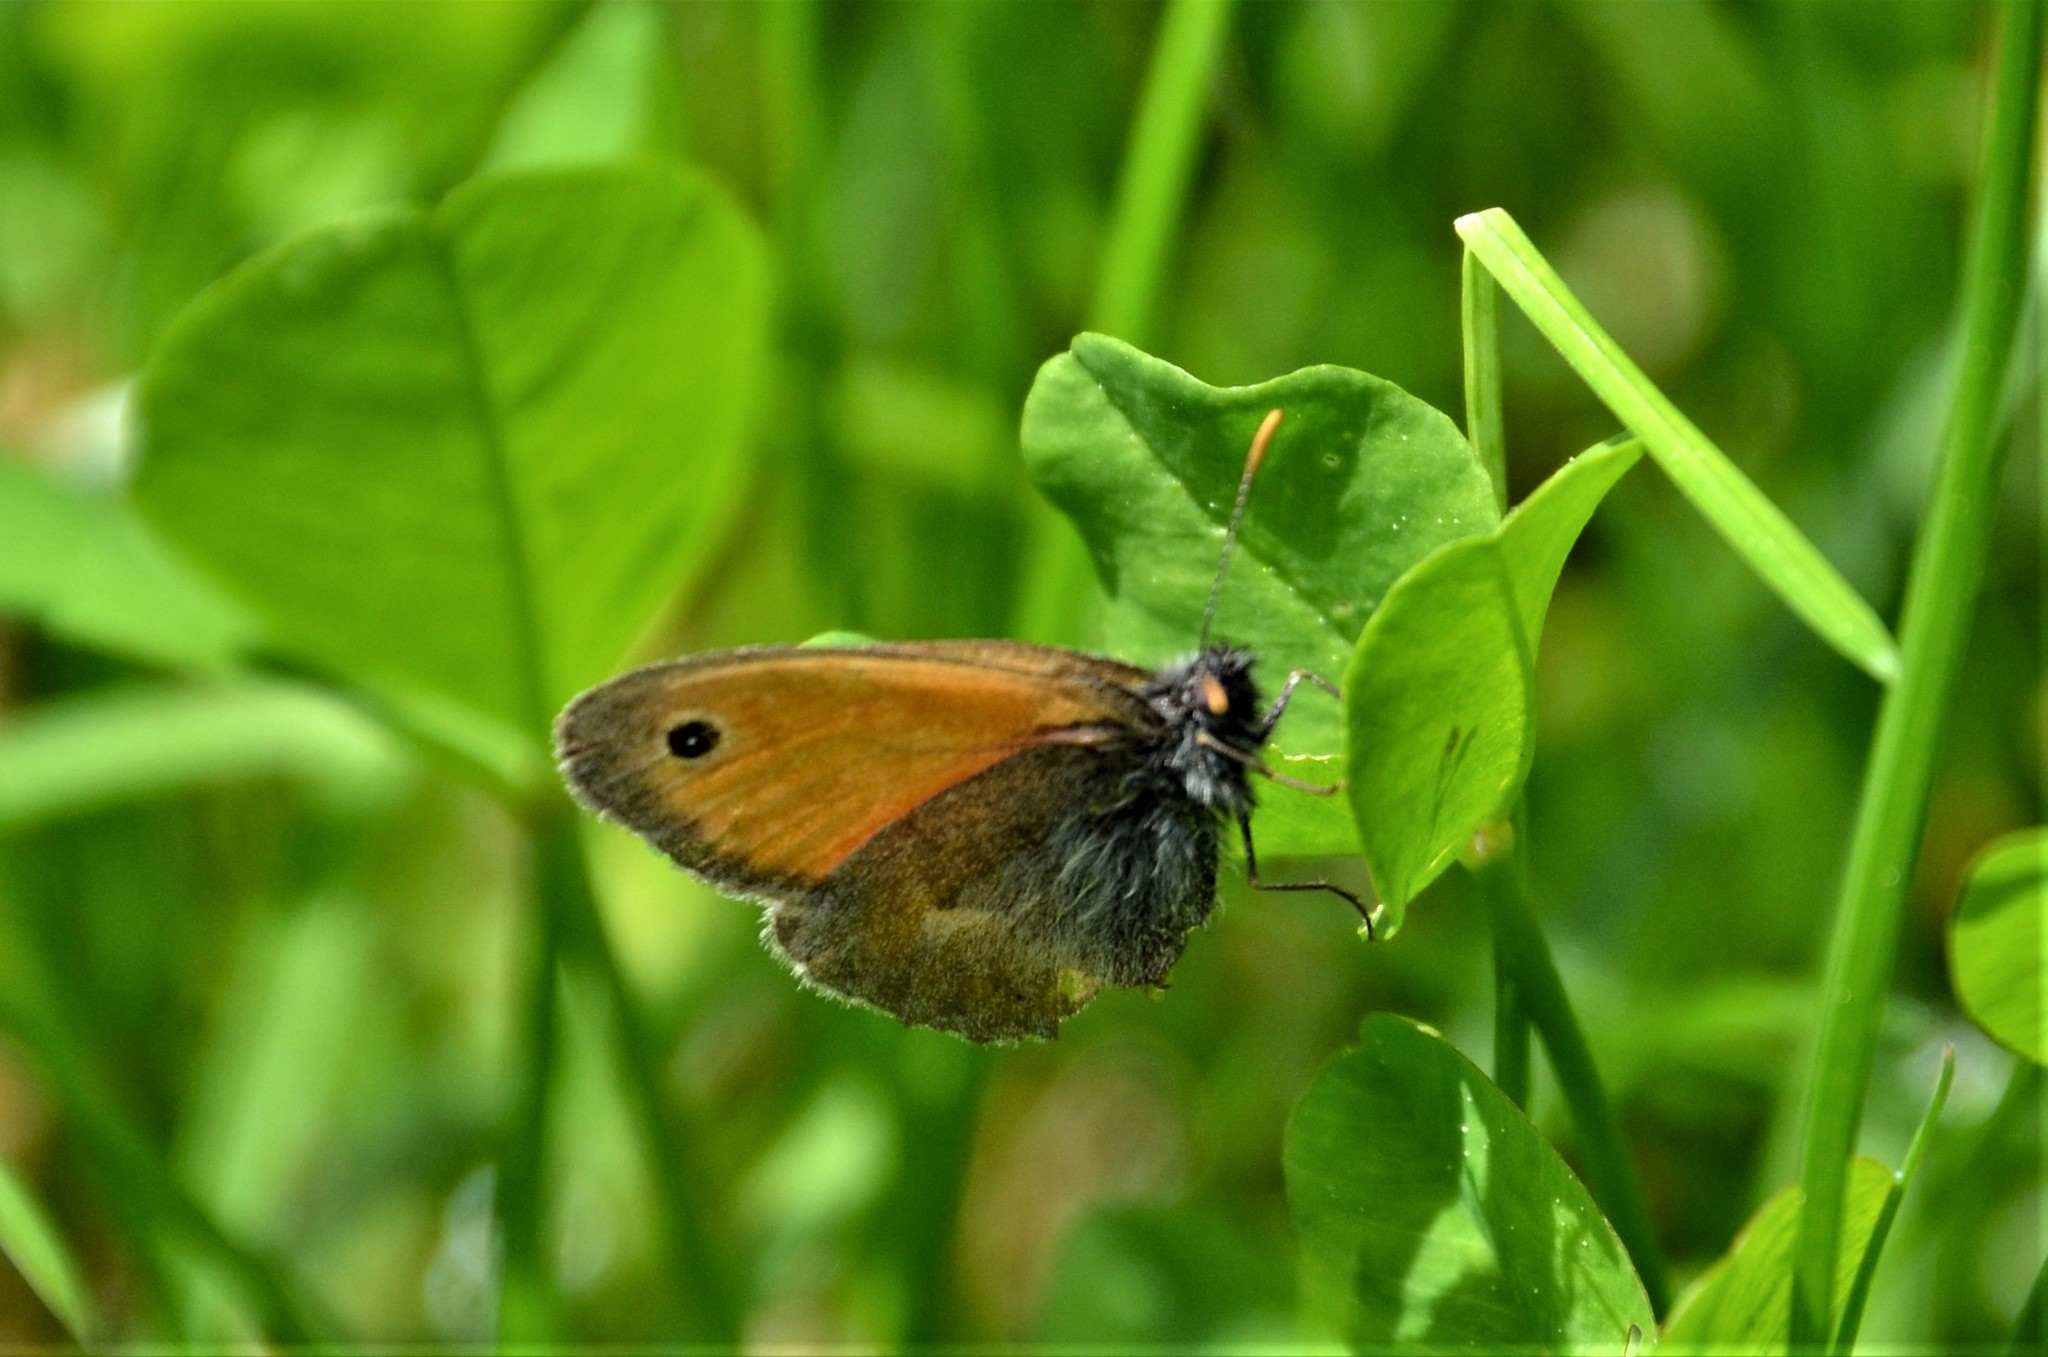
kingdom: Animalia
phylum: Arthropoda
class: Insecta
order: Lepidoptera
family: Nymphalidae
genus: Coenonympha
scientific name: Coenonympha pamphilus
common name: Small heath
